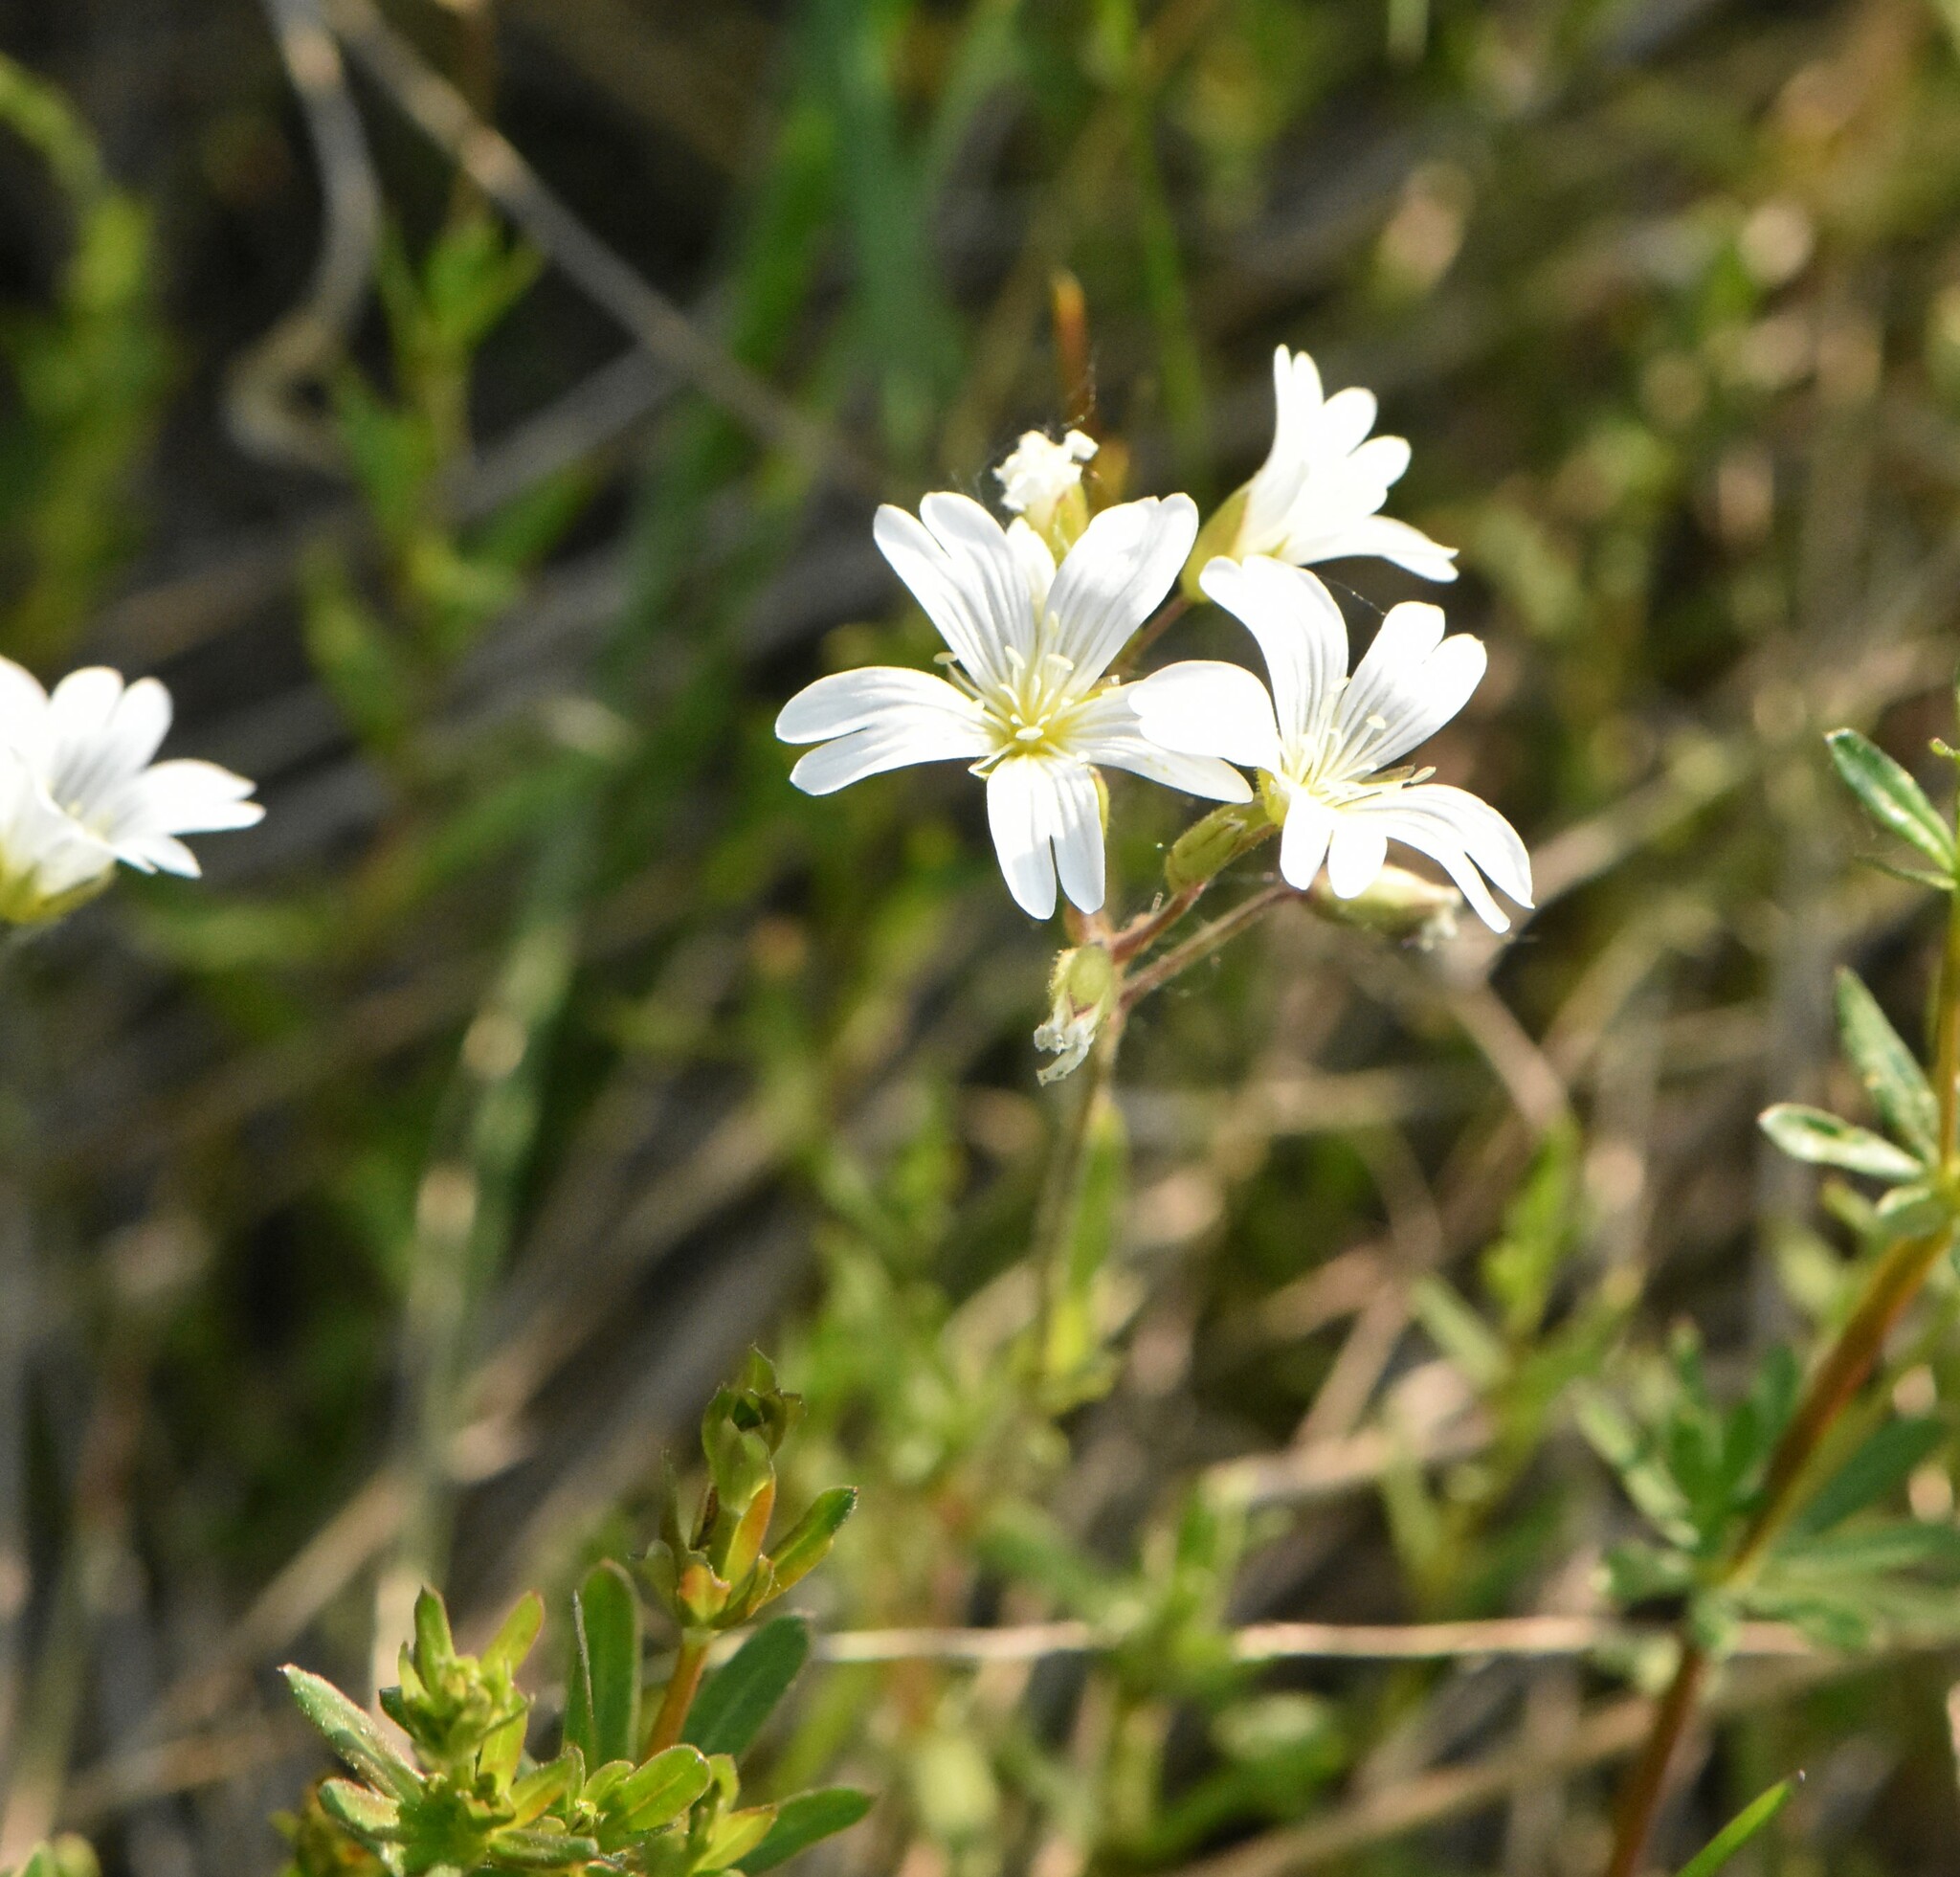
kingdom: Plantae
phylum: Tracheophyta
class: Magnoliopsida
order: Caryophyllales
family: Caryophyllaceae
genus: Cerastium
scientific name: Cerastium arvense
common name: Field mouse-ear
